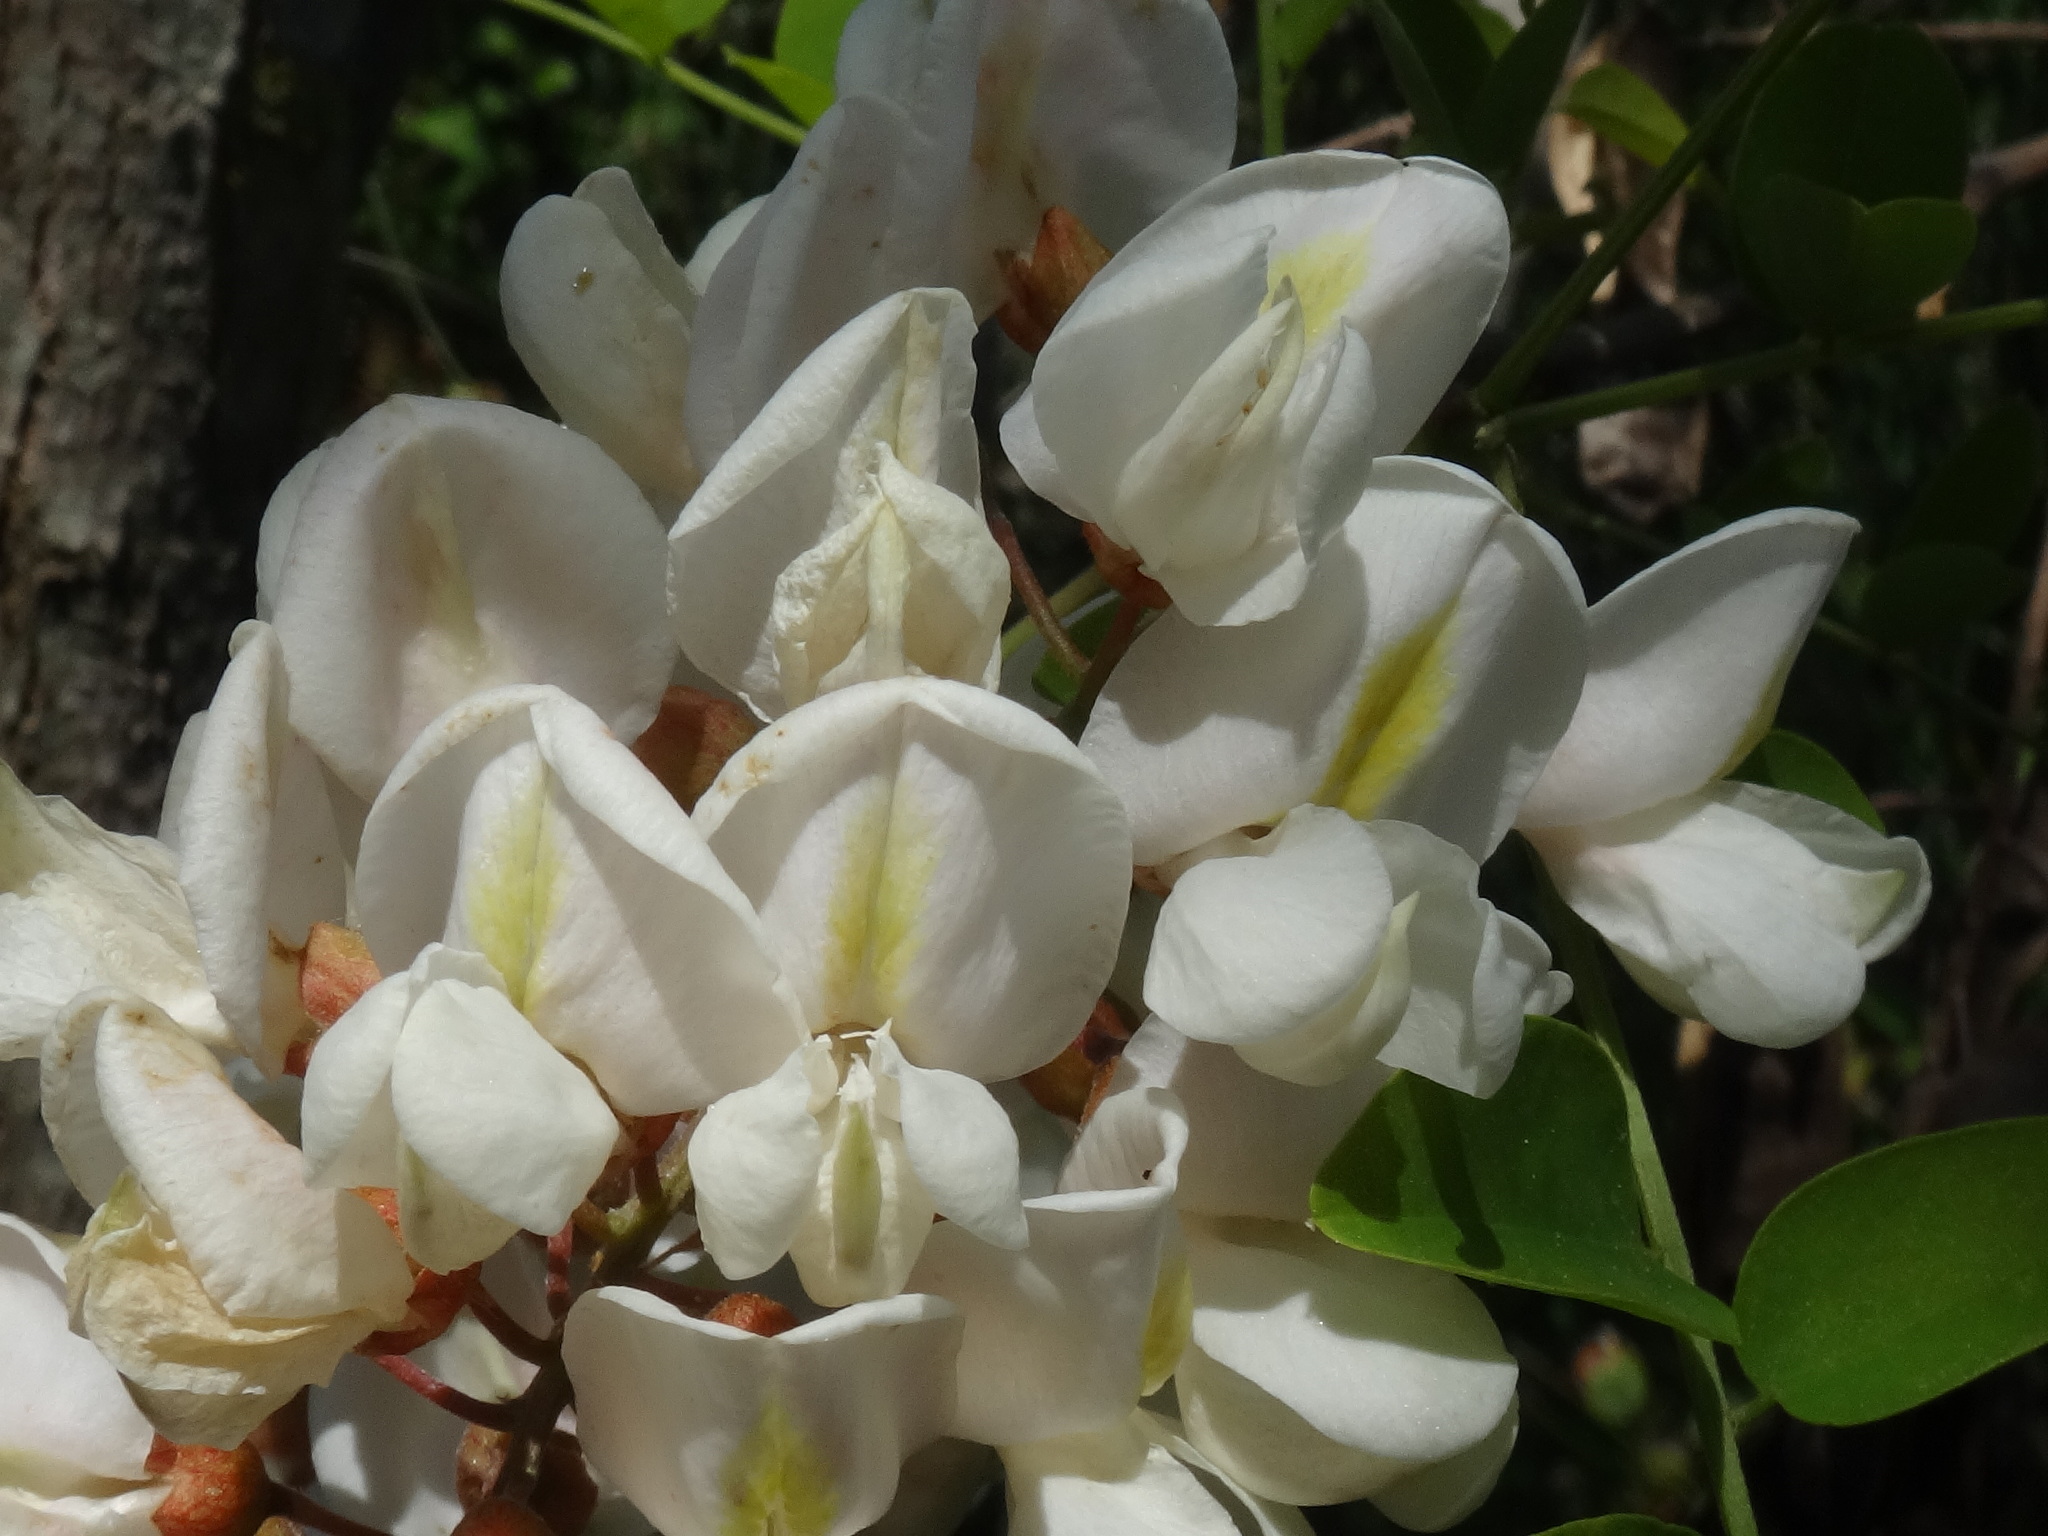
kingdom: Plantae
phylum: Tracheophyta
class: Magnoliopsida
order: Fabales
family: Fabaceae
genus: Robinia
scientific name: Robinia pseudoacacia
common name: Black locust
